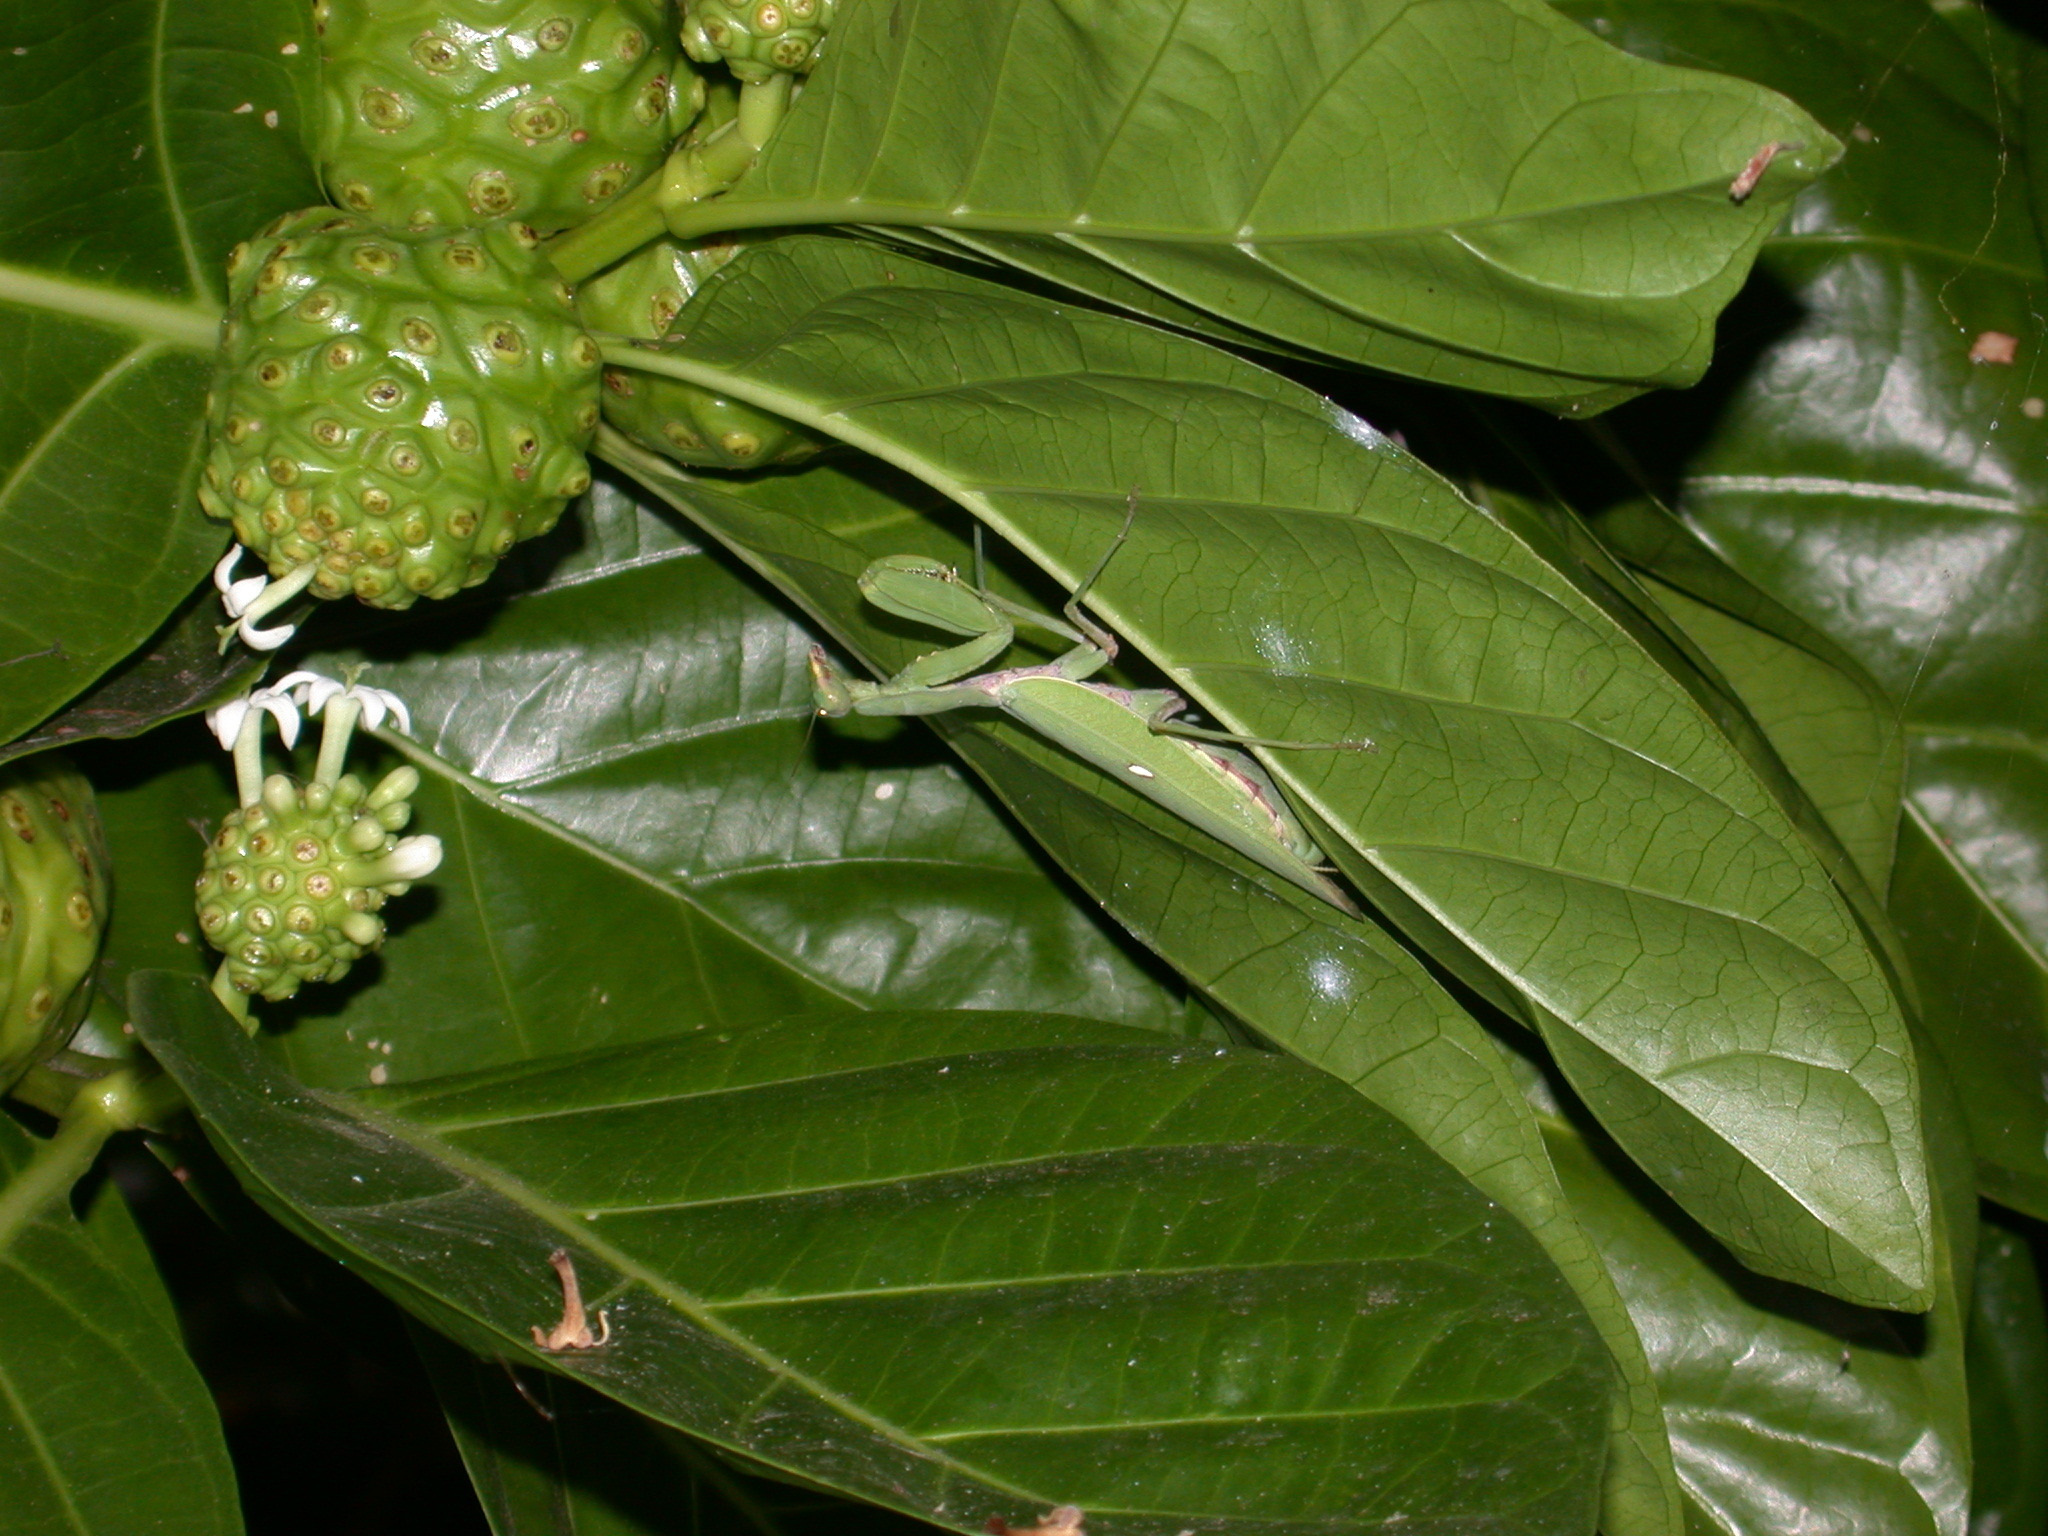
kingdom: Plantae
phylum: Tracheophyta
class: Magnoliopsida
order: Gentianales
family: Rubiaceae
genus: Morinda
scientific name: Morinda citrifolia
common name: Indian-mulberry
